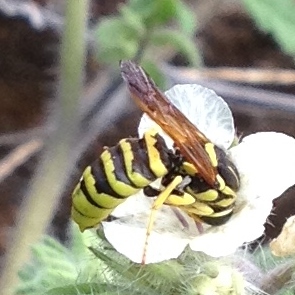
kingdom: Animalia
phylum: Arthropoda
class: Insecta
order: Hymenoptera
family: Masaridae
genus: Pseudomasaris
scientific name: Pseudomasaris coquilletti
